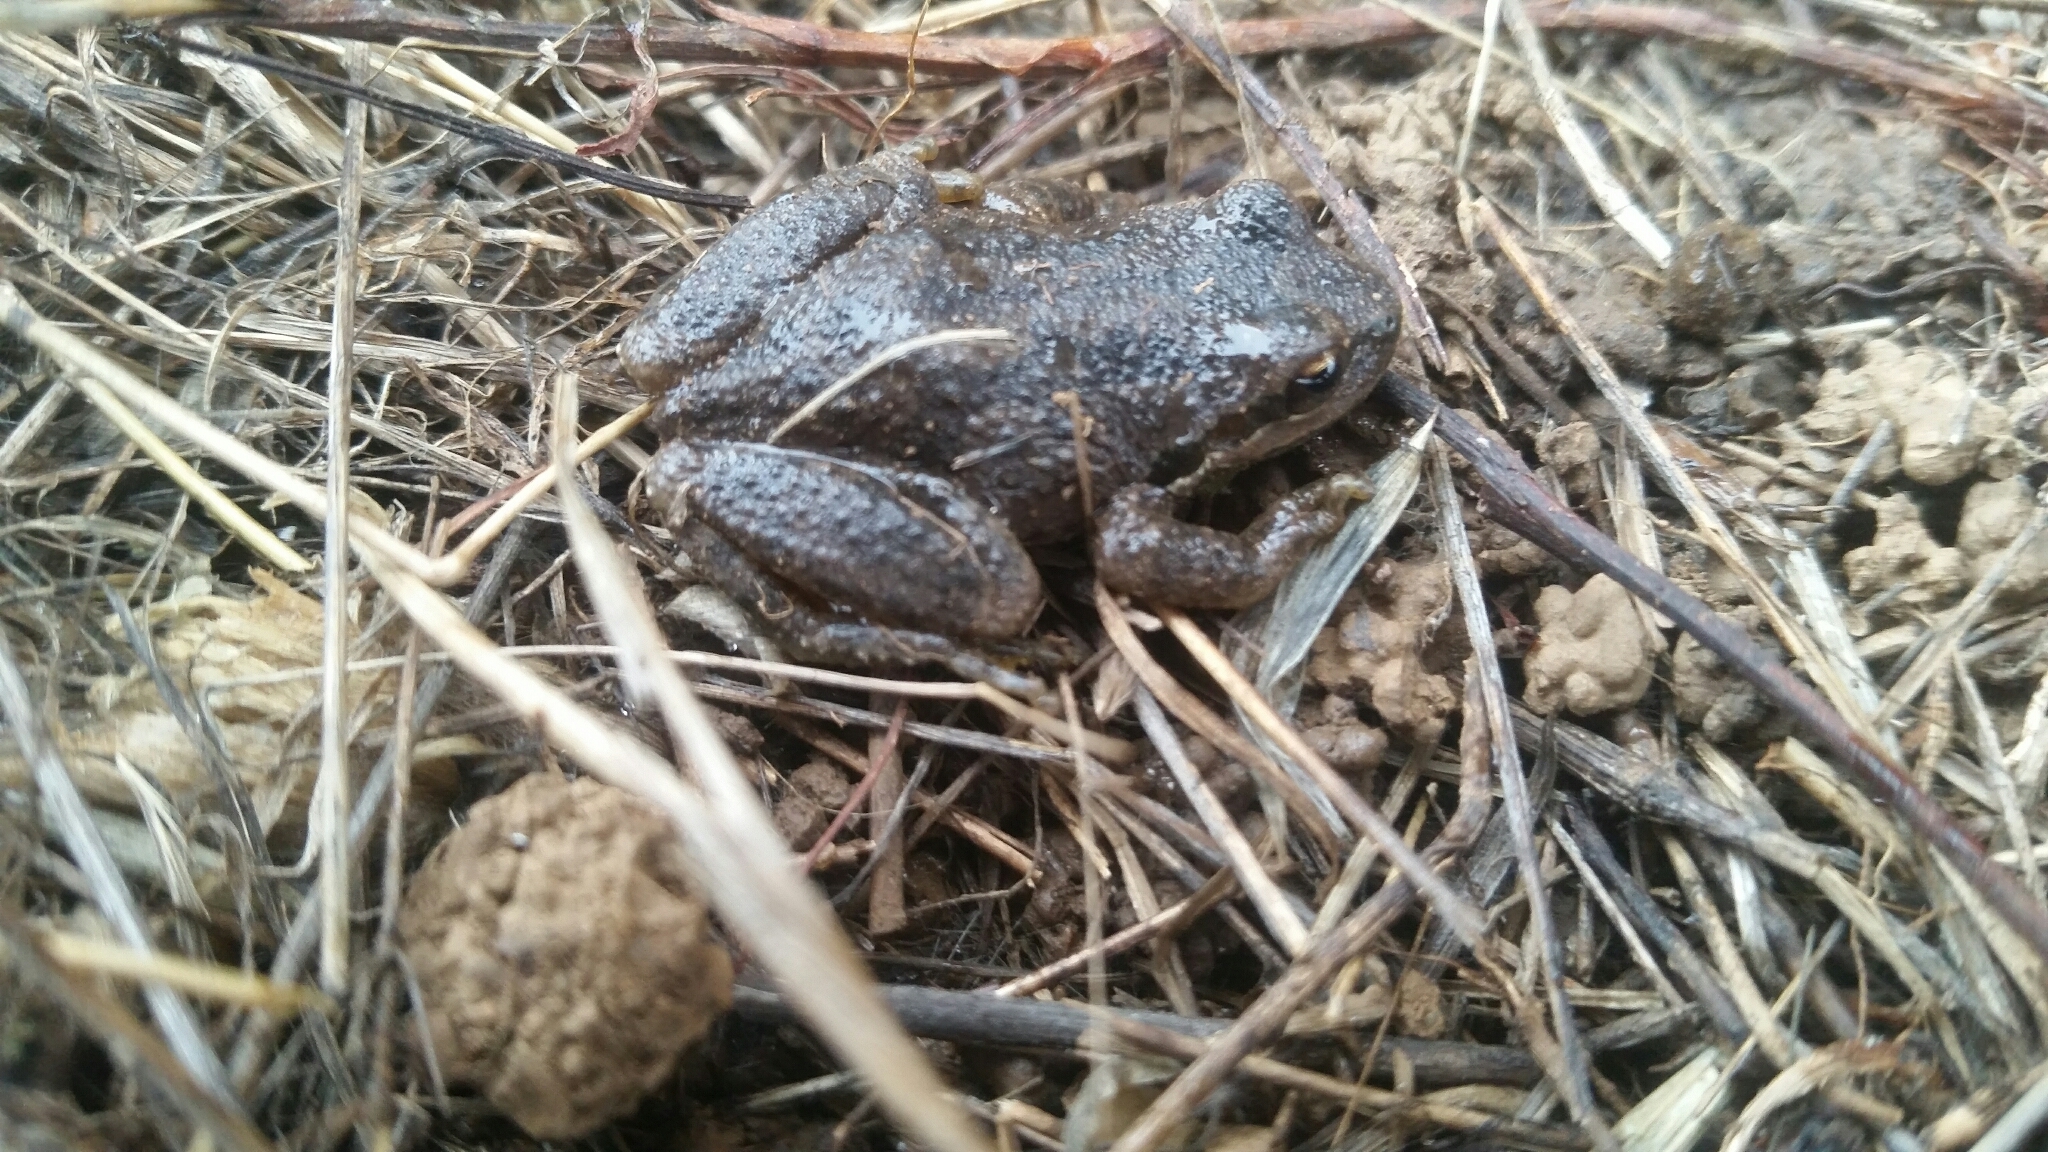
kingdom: Animalia
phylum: Chordata
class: Amphibia
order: Anura
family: Hylidae
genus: Pseudacris
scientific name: Pseudacris regilla
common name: Pacific chorus frog
